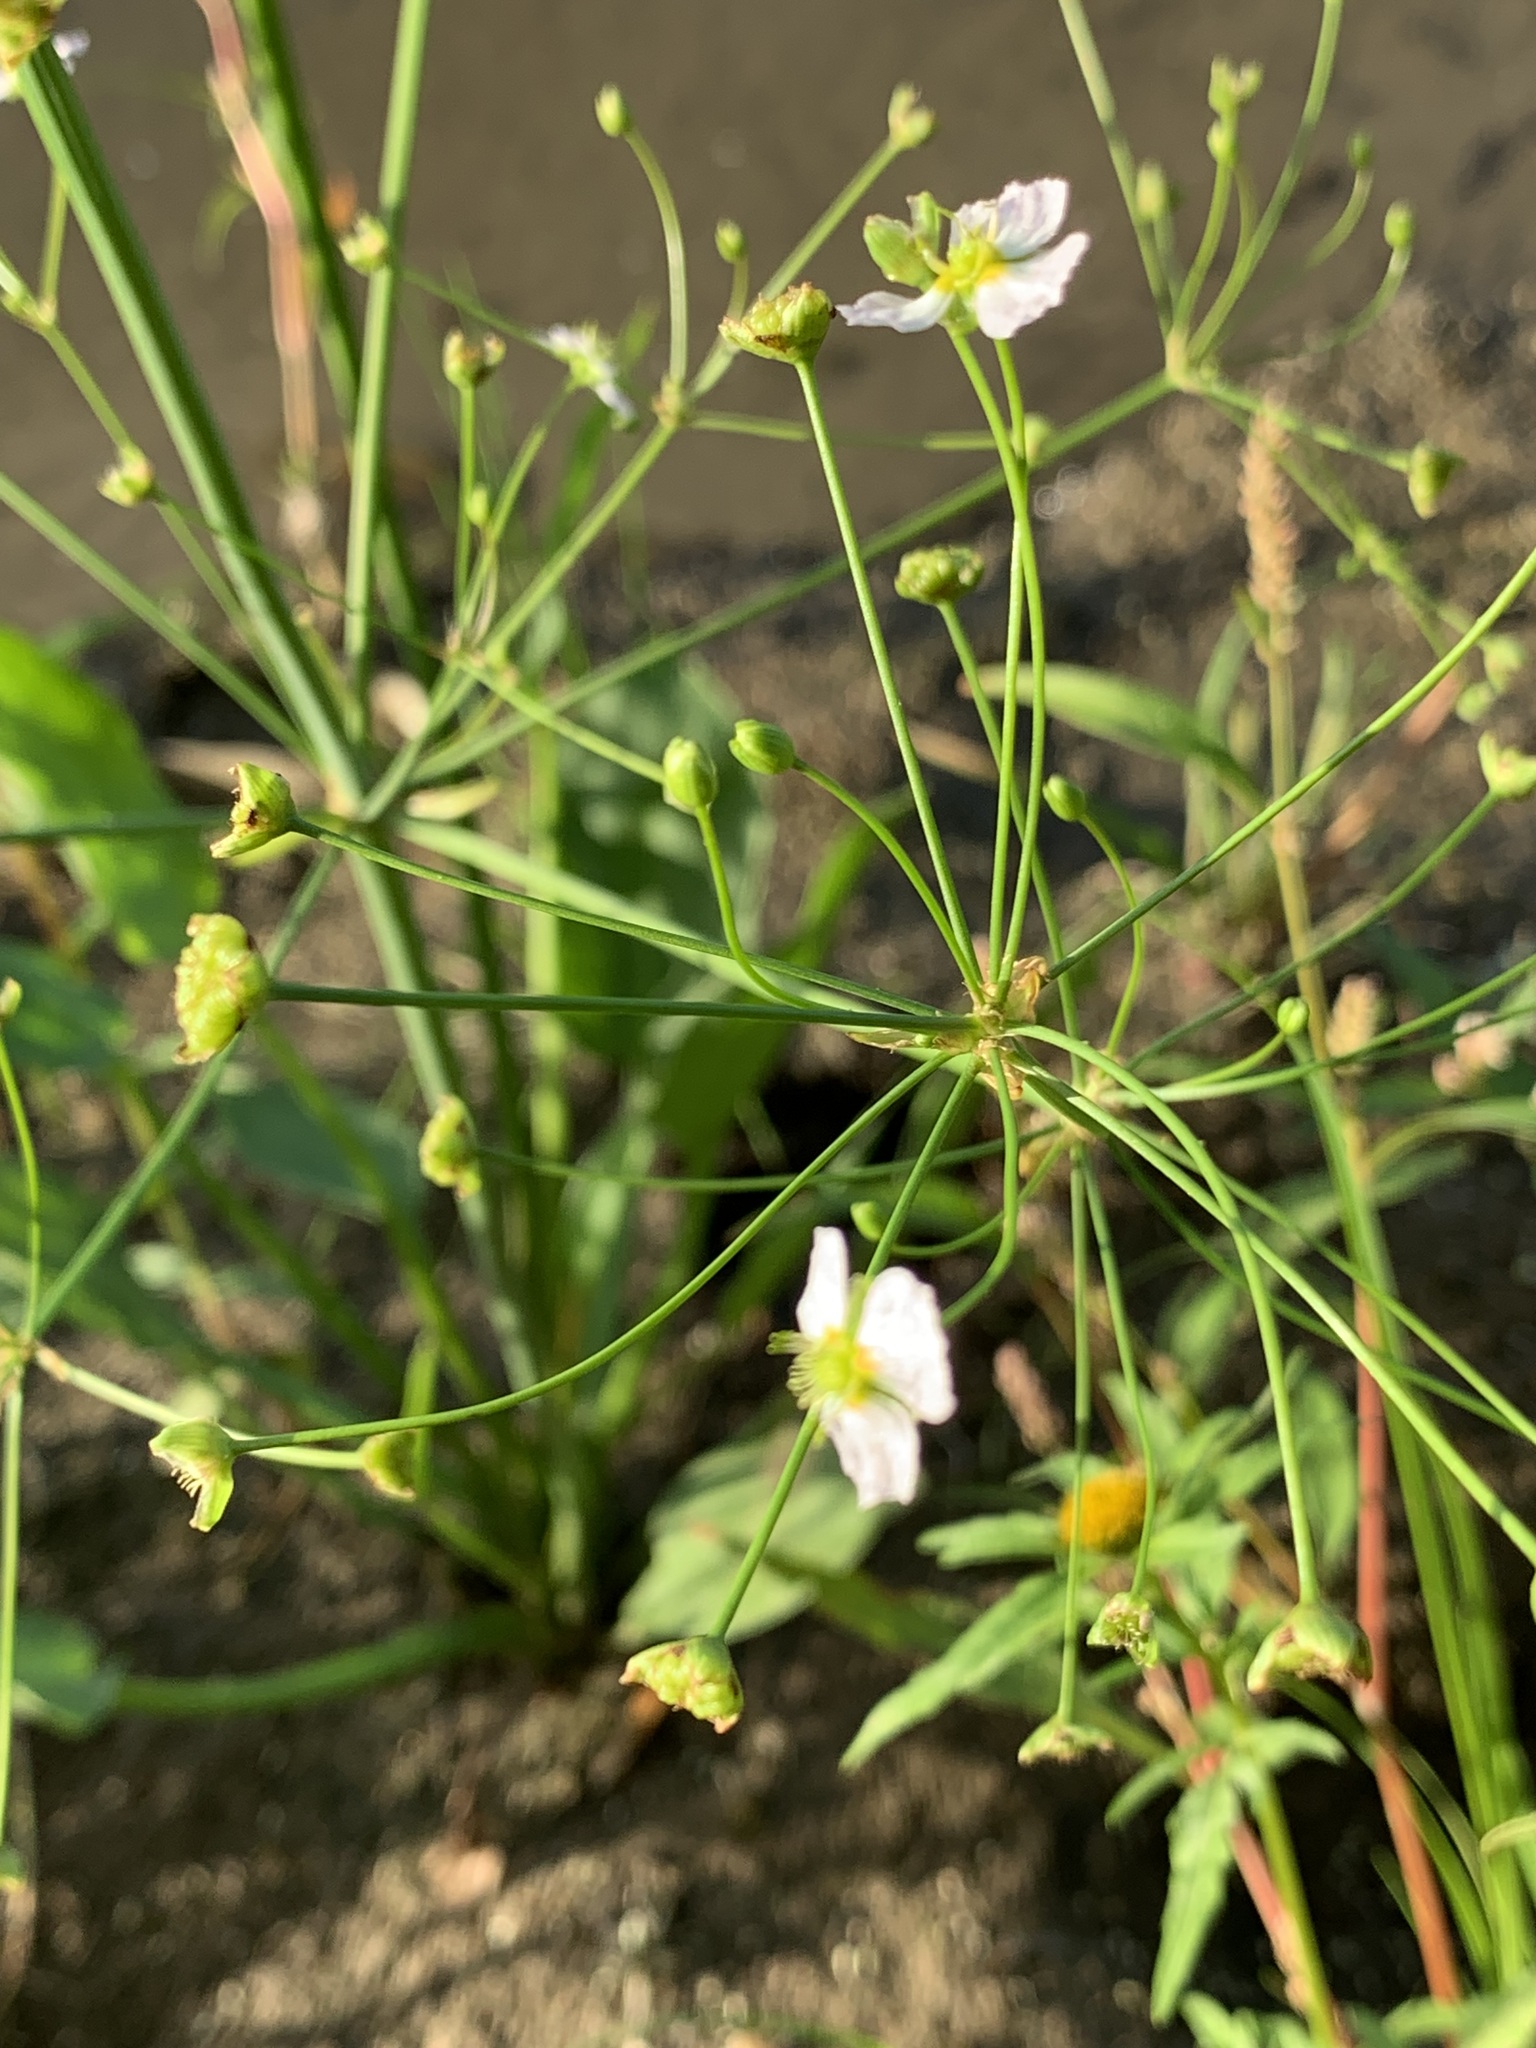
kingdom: Plantae
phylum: Tracheophyta
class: Liliopsida
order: Alismatales
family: Alismataceae
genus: Alisma
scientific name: Alisma plantago-aquatica
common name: Water-plantain
